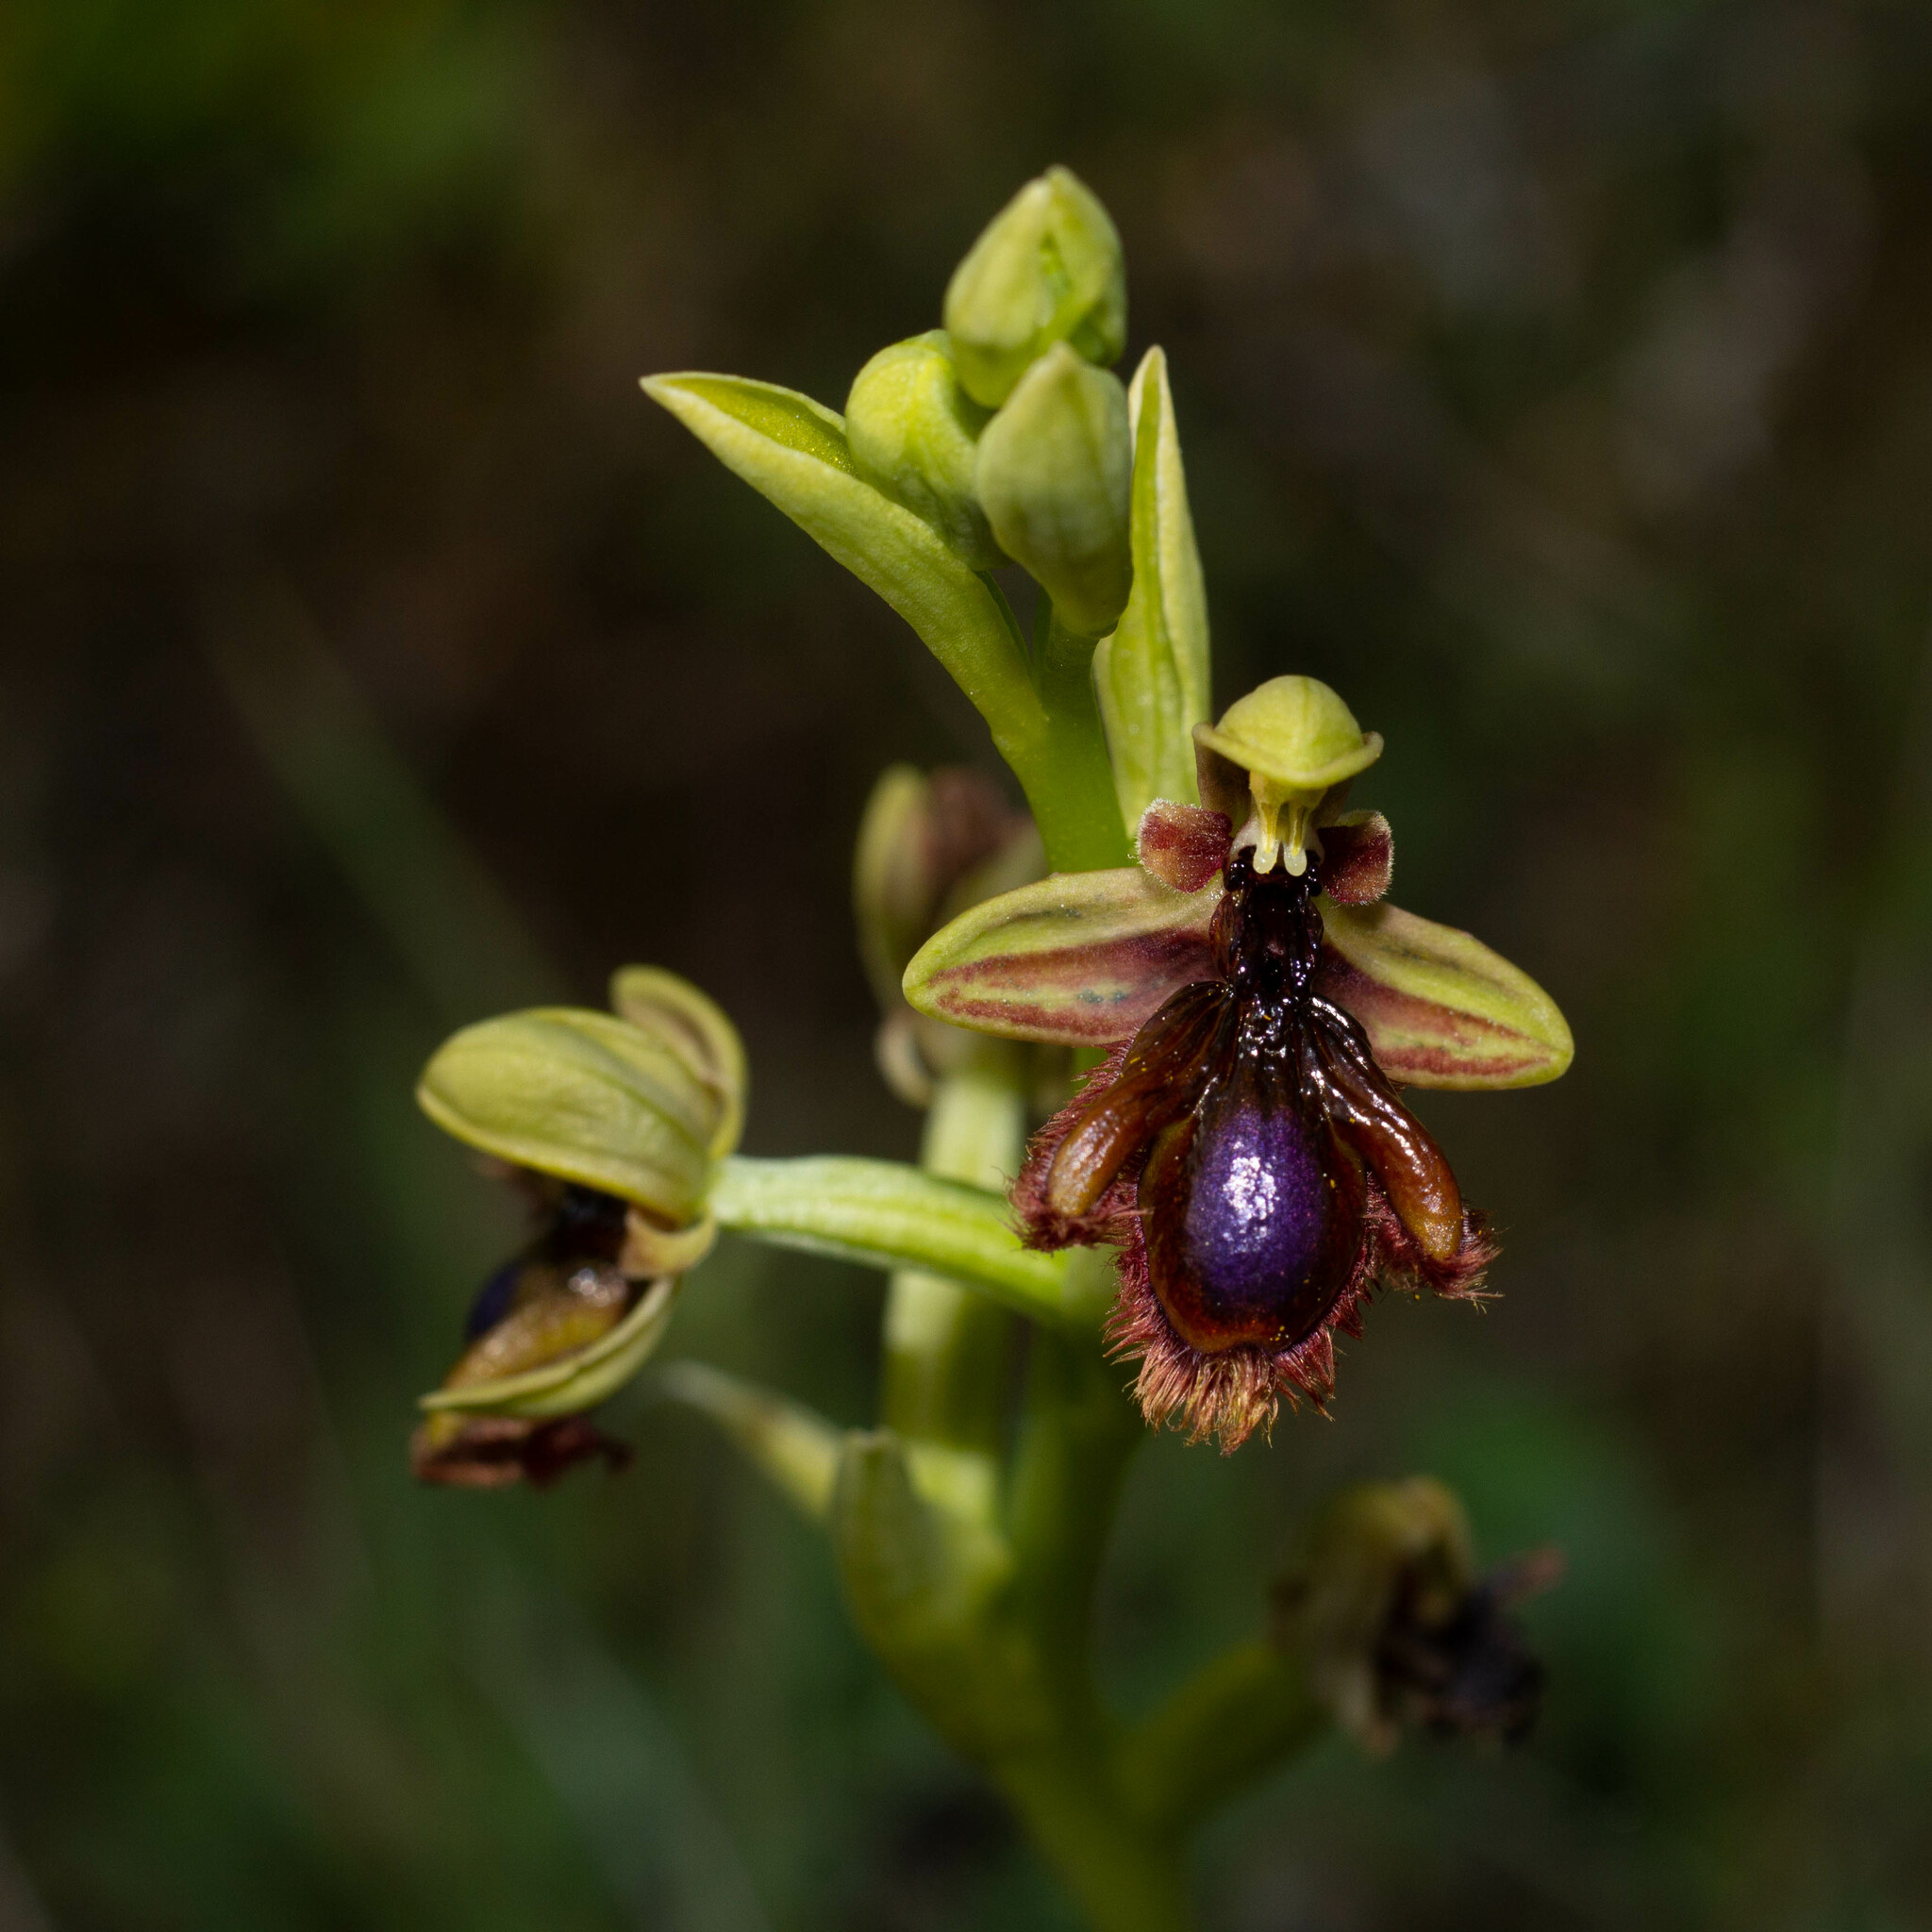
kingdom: Plantae
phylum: Tracheophyta
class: Liliopsida
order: Asparagales
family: Orchidaceae
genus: Ophrys
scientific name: Ophrys speculum
